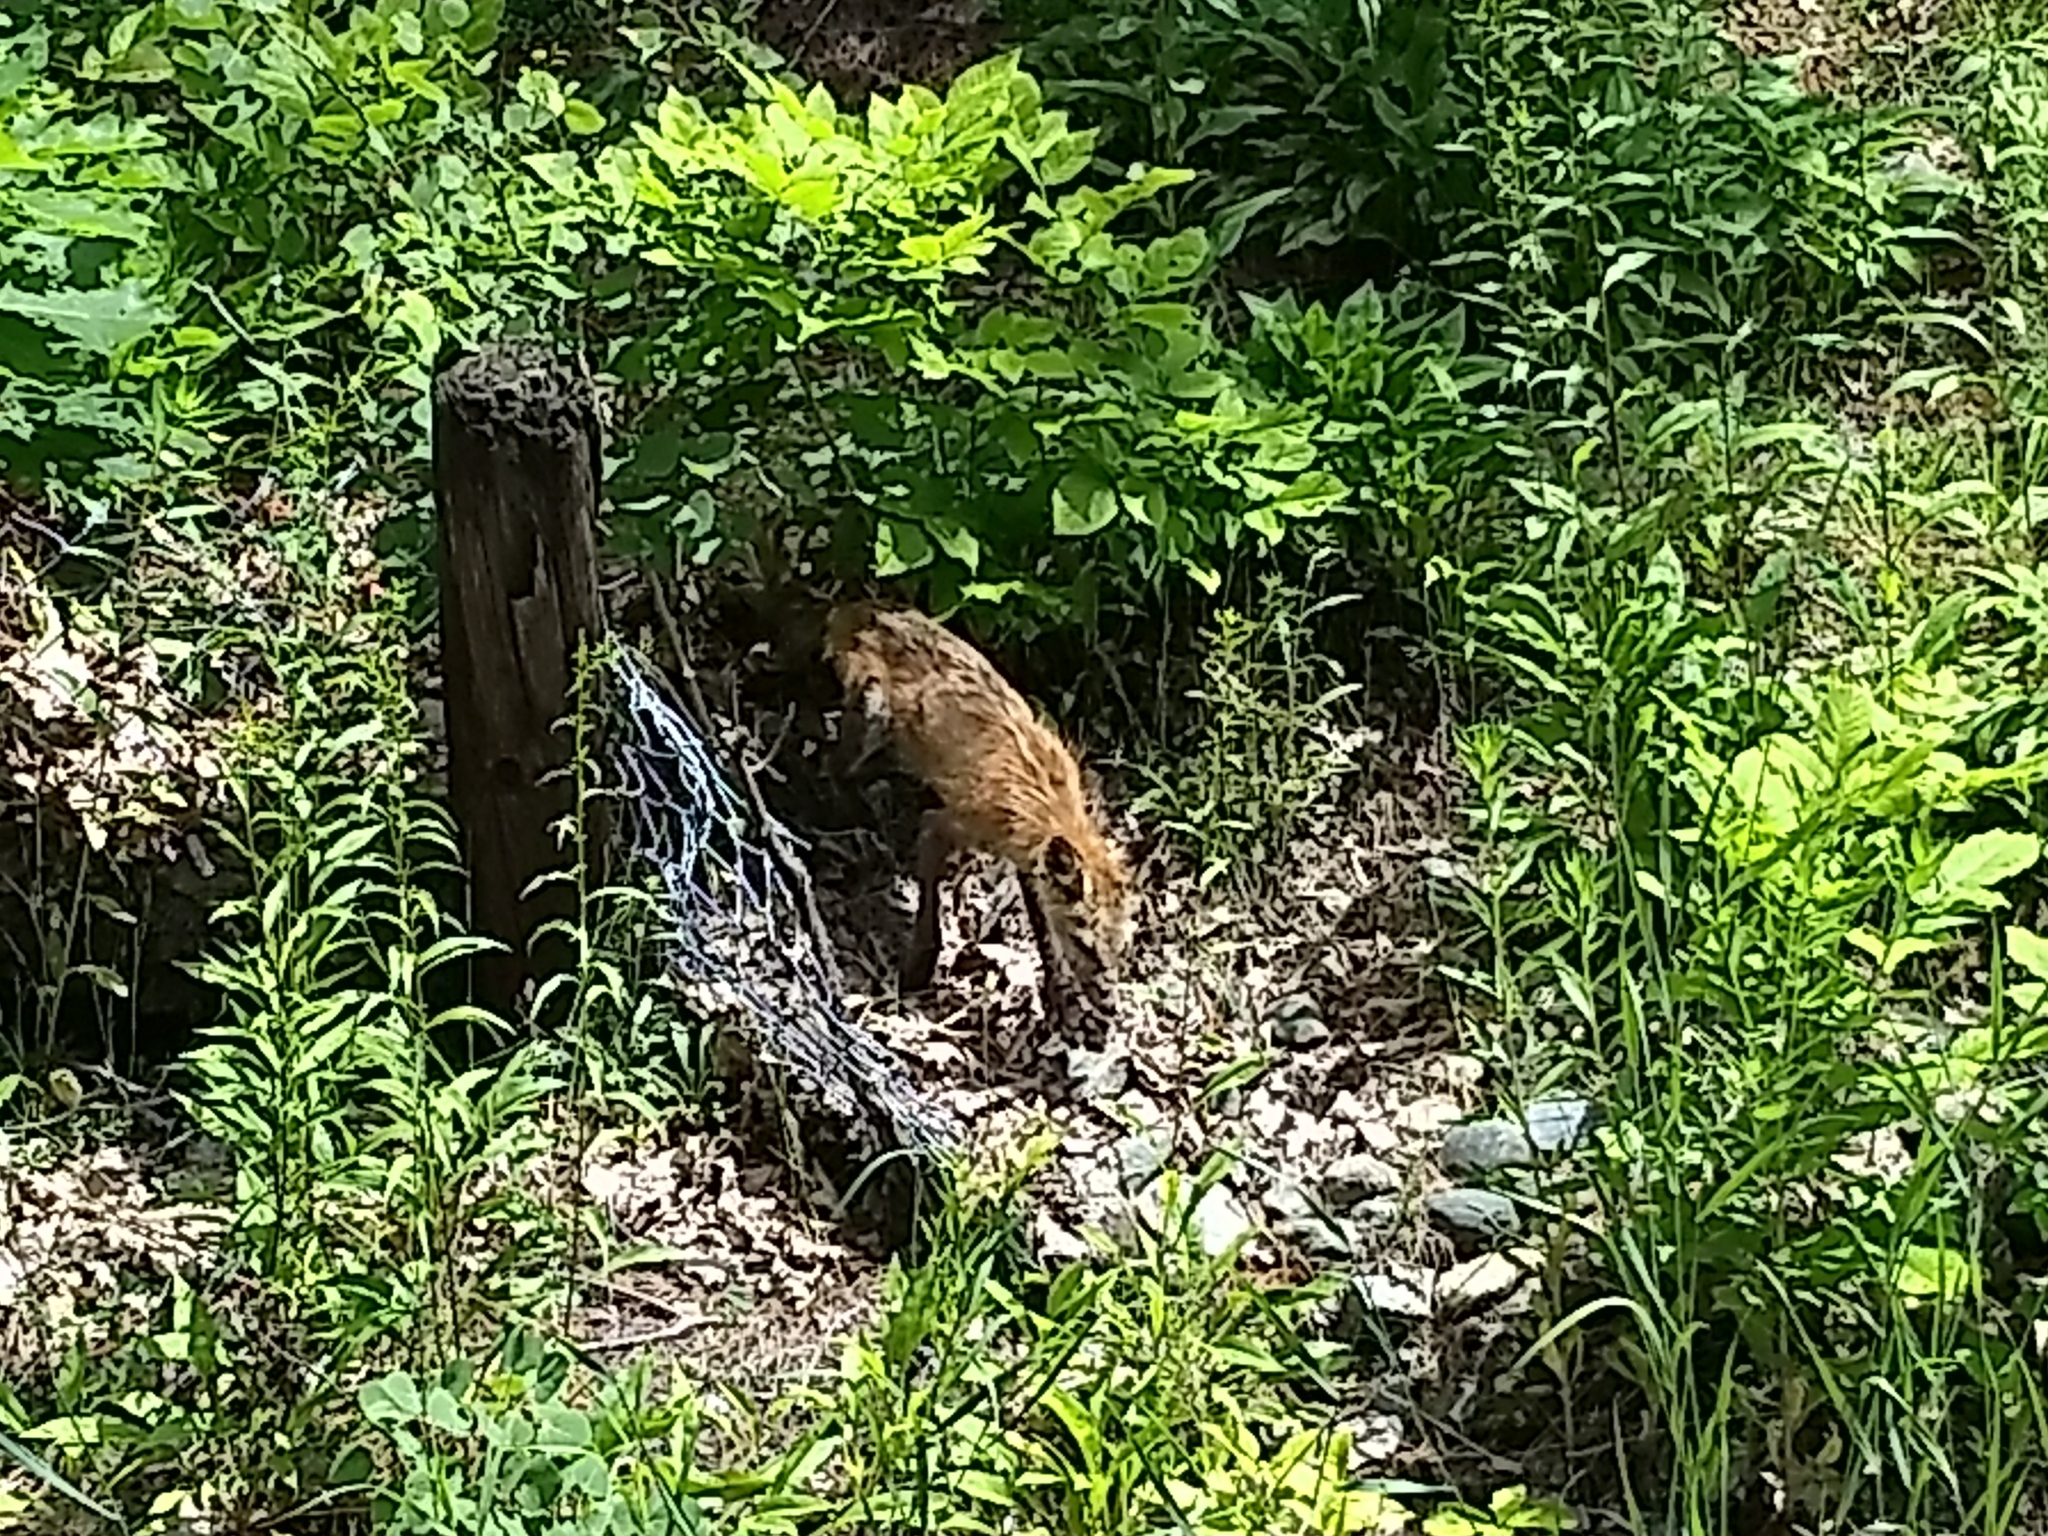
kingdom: Animalia
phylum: Chordata
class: Mammalia
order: Carnivora
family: Canidae
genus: Vulpes
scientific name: Vulpes vulpes
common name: Red fox
